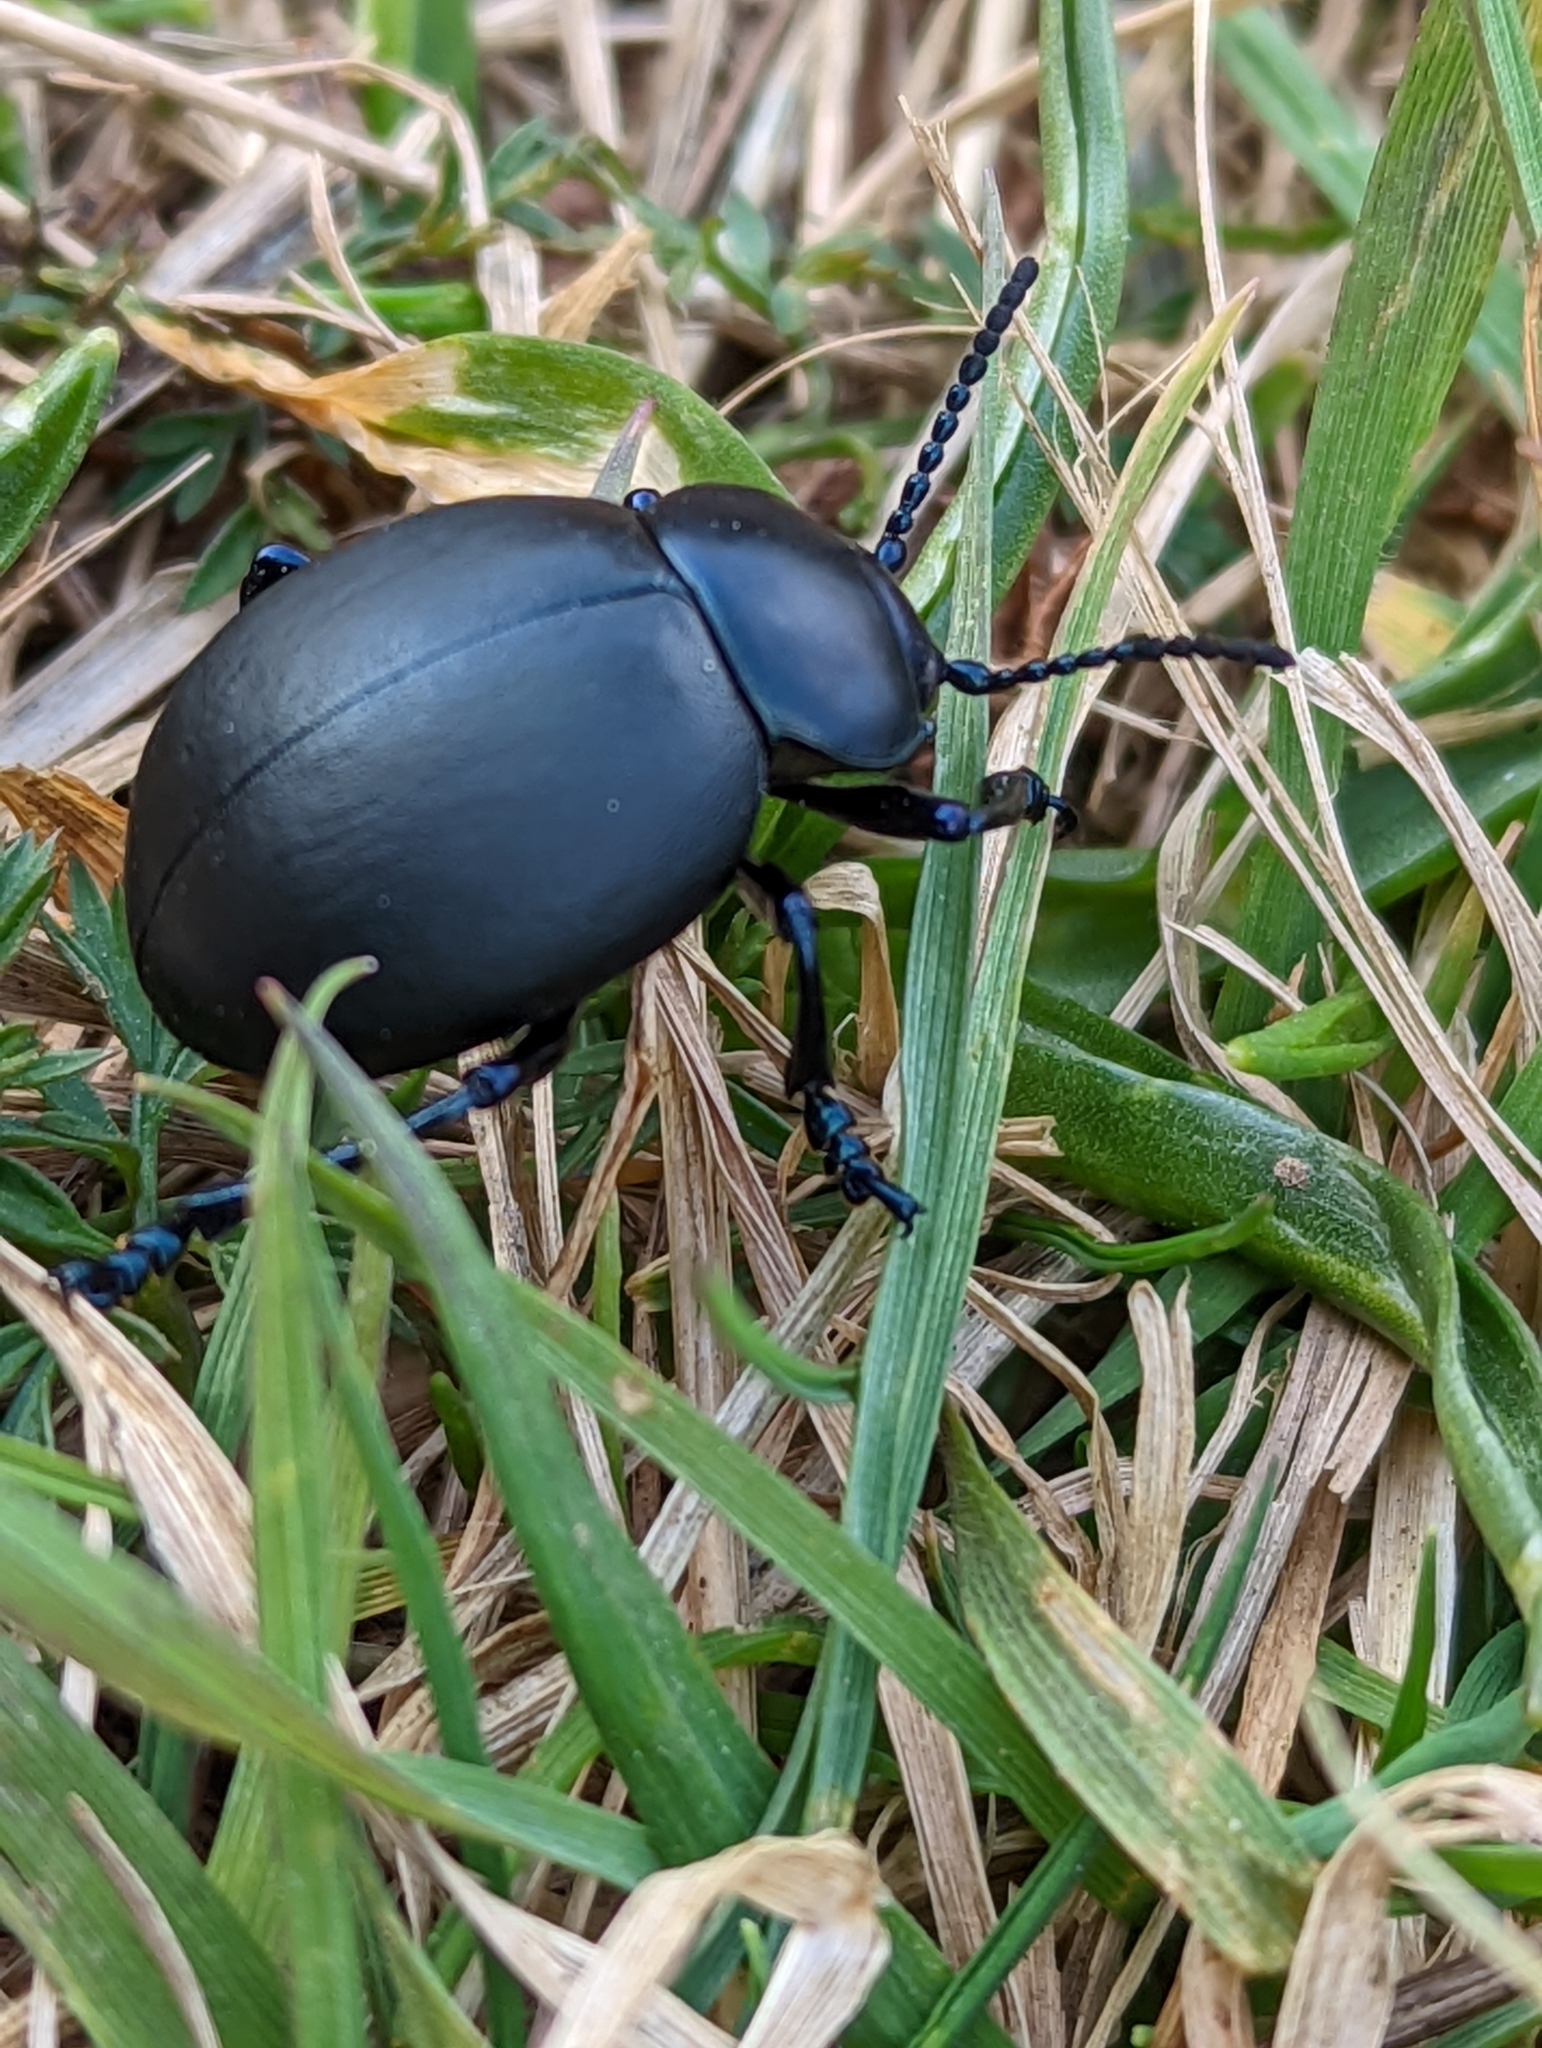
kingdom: Animalia
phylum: Arthropoda
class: Insecta
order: Coleoptera
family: Chrysomelidae
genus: Timarcha
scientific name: Timarcha tenebricosa
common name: Bloody-nosed beetle
